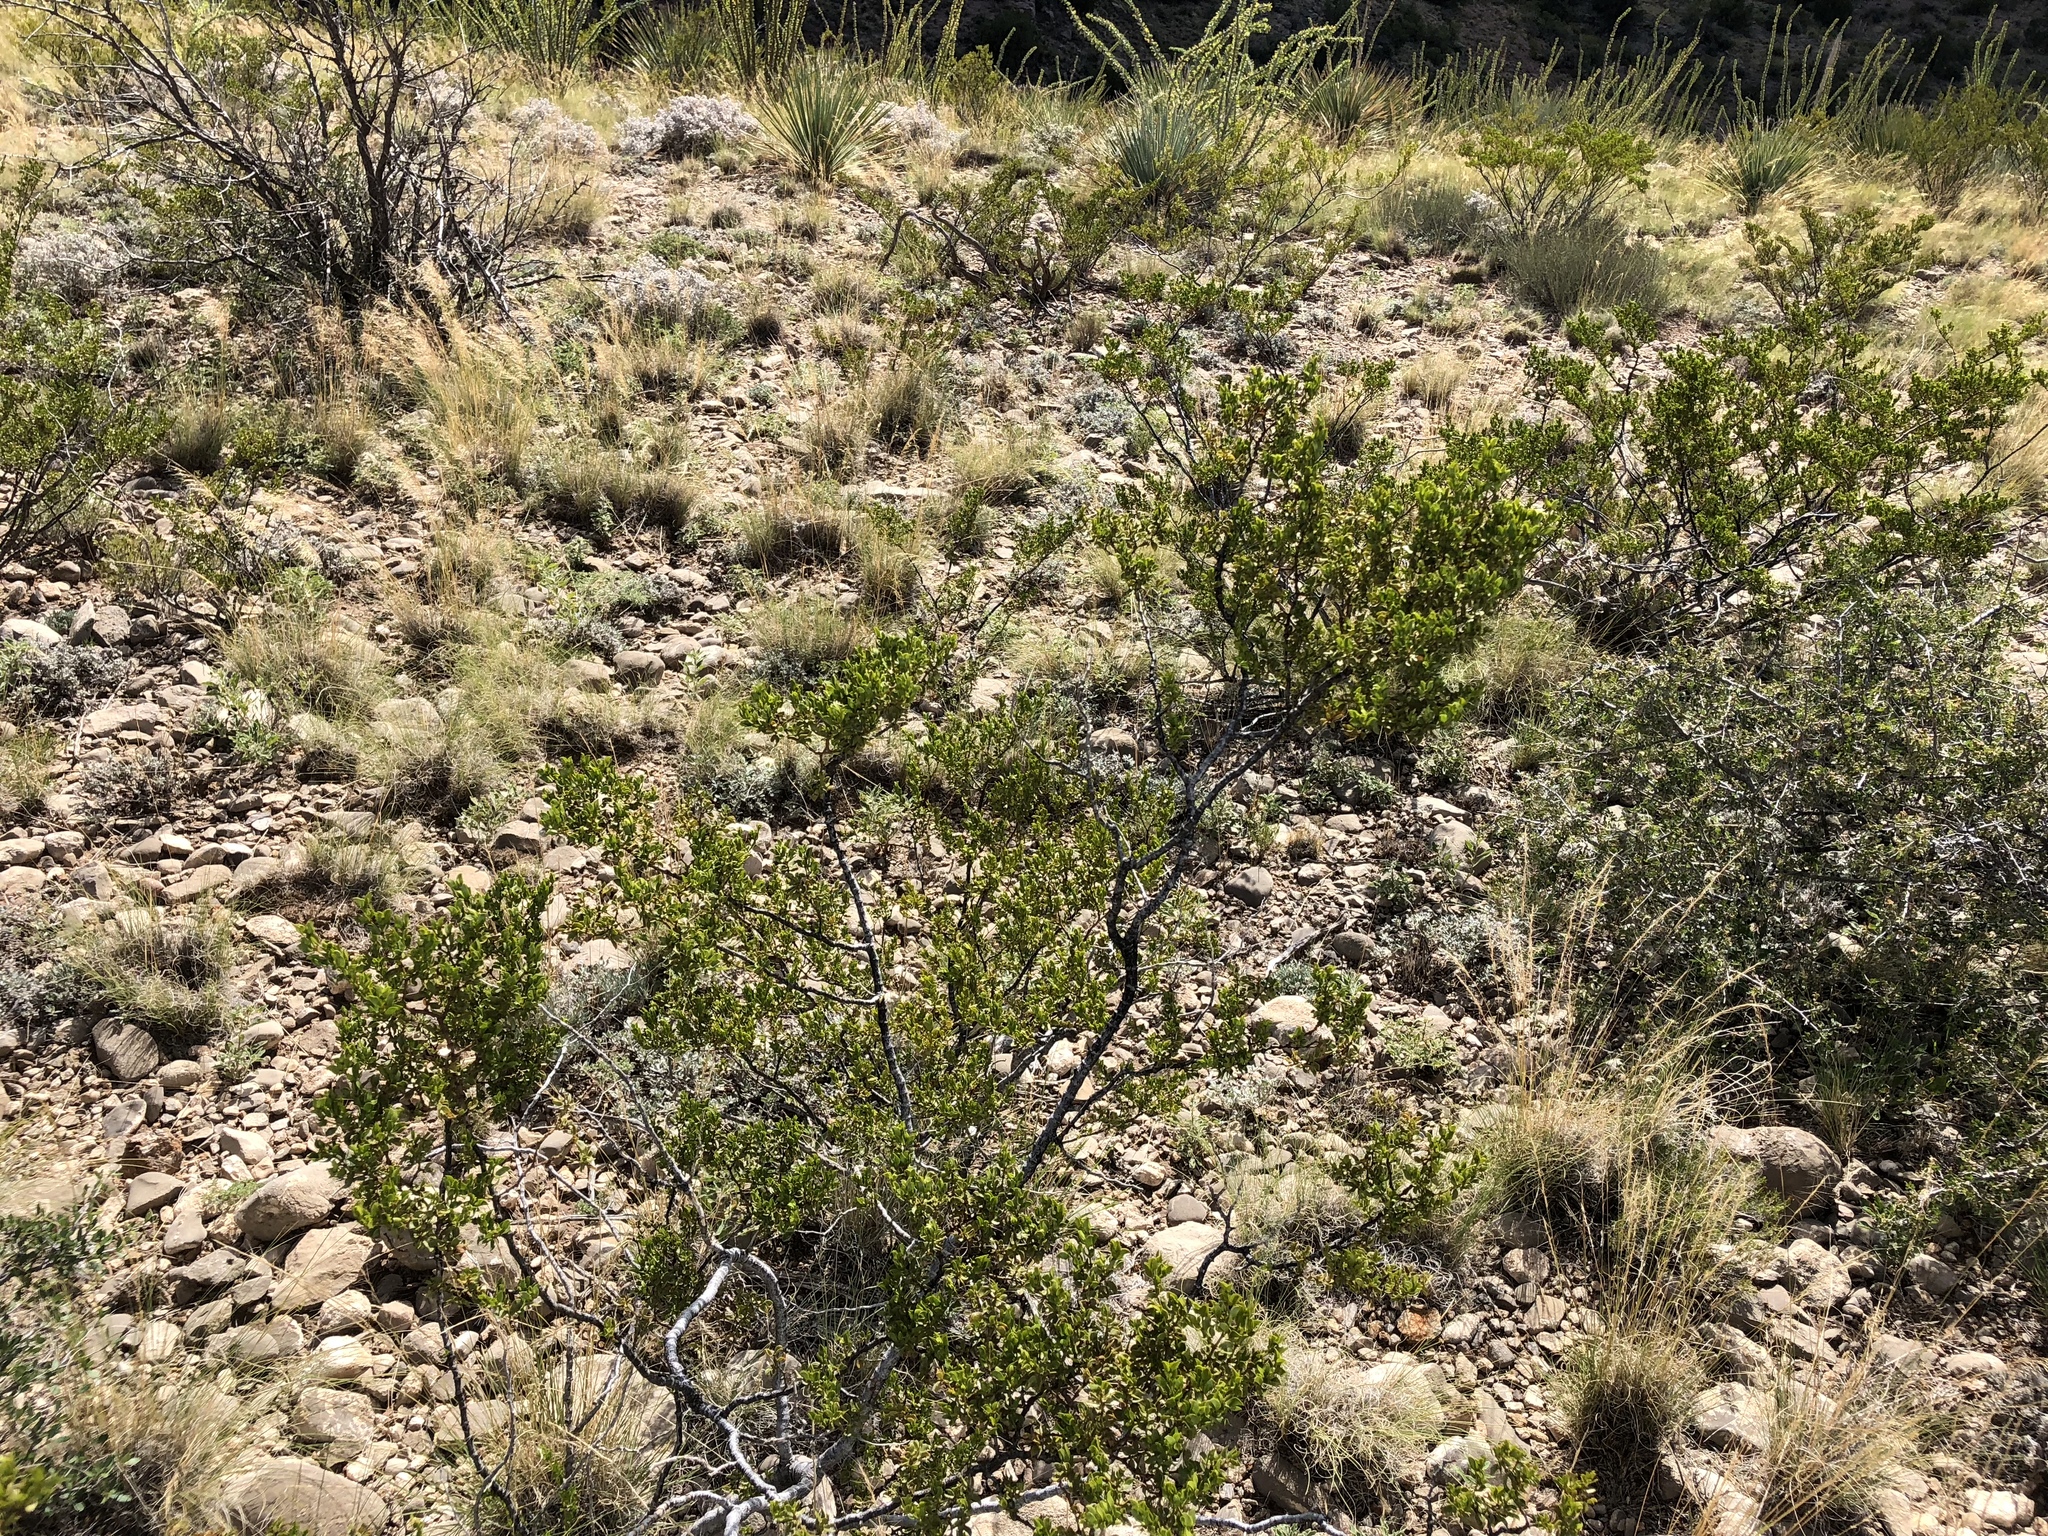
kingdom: Plantae
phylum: Tracheophyta
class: Magnoliopsida
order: Zygophyllales
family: Zygophyllaceae
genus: Larrea
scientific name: Larrea tridentata
